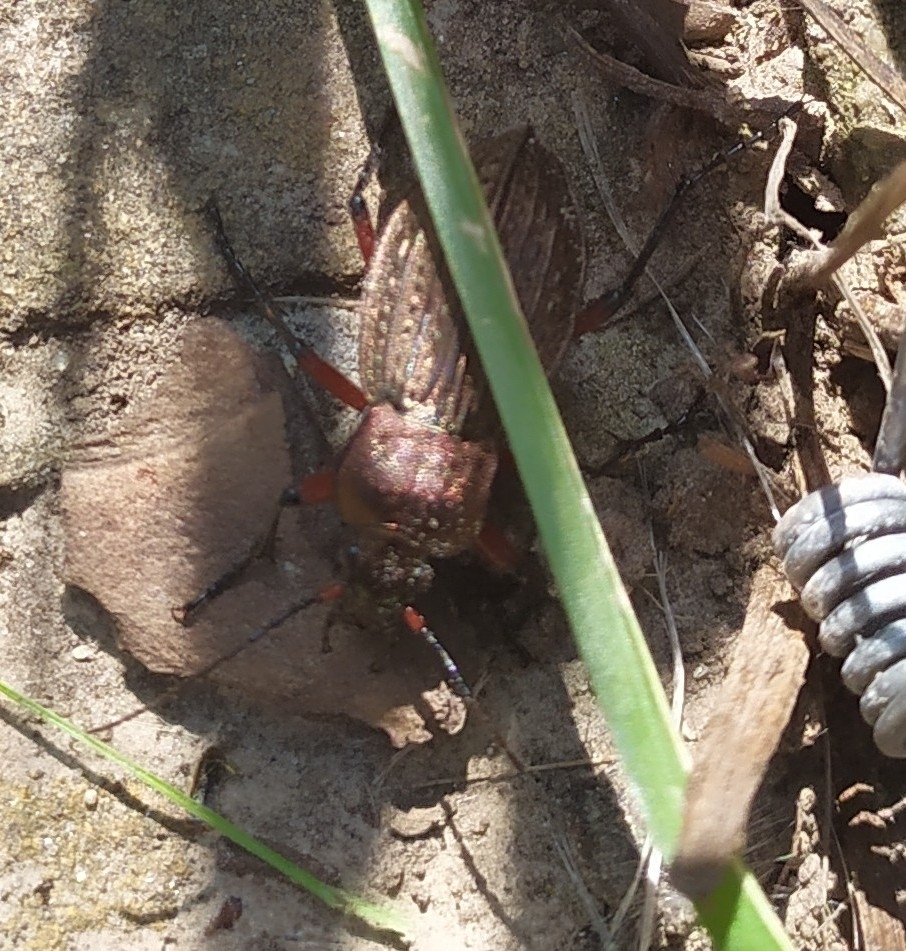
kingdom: Animalia
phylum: Arthropoda
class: Insecta
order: Coleoptera
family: Carabidae
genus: Carabus
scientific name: Carabus cancellatus
